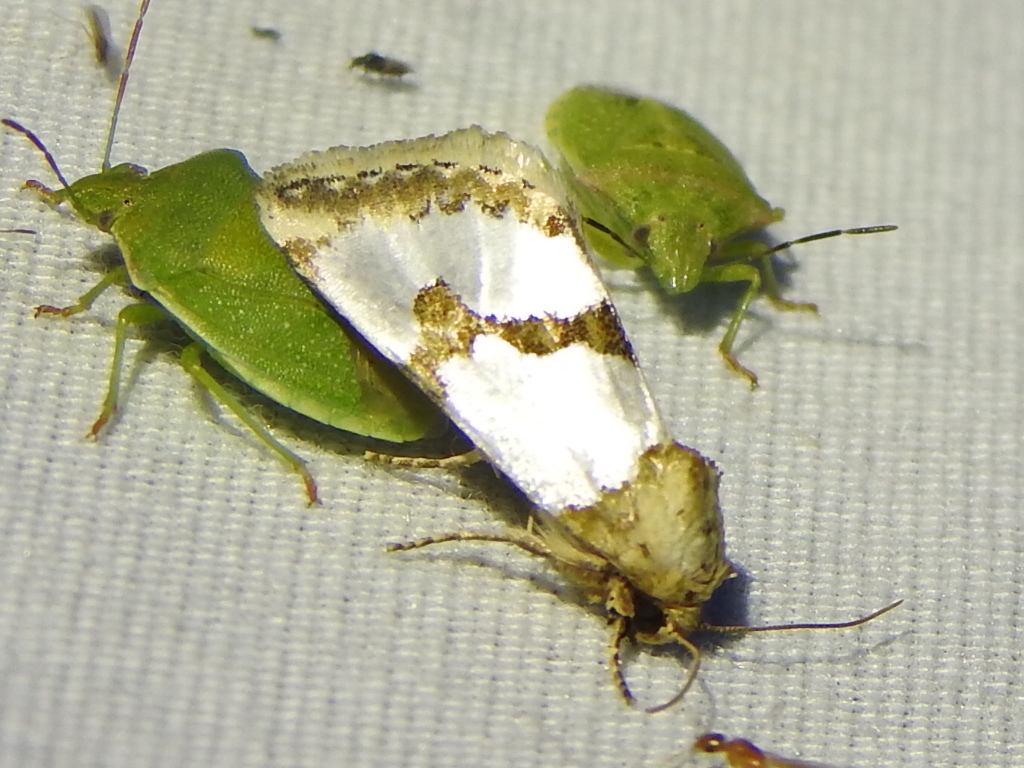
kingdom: Animalia
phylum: Arthropoda
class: Insecta
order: Lepidoptera
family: Noctuidae
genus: Schinia
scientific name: Schinia chrysellus
